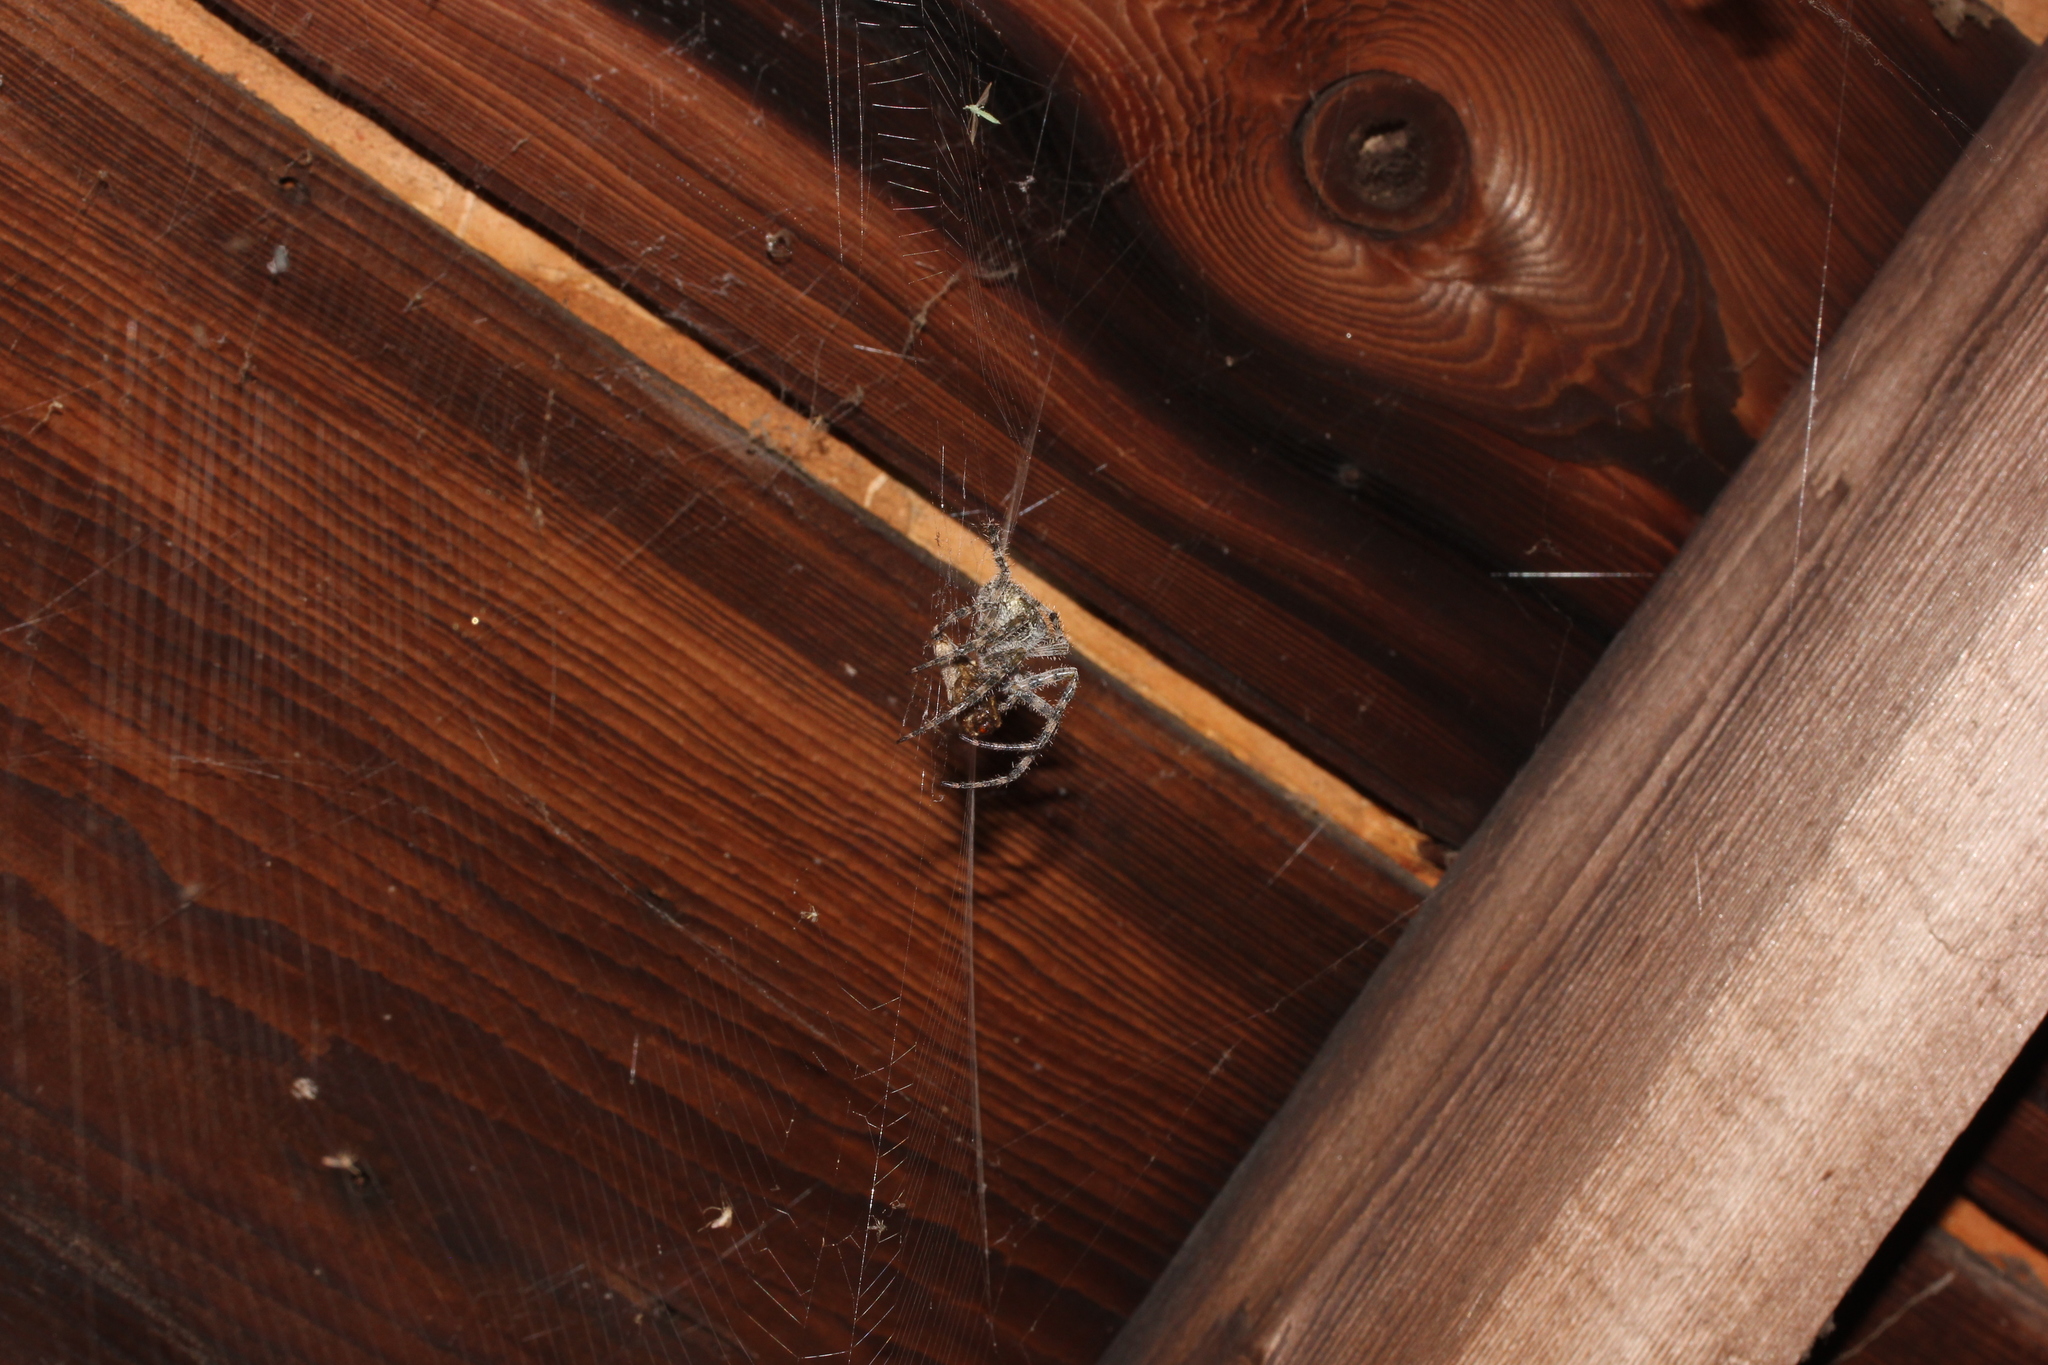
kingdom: Animalia
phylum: Arthropoda
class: Arachnida
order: Araneae
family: Araneidae
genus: Araneus
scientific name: Araneus cavaticus
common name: Barn orbweaver
